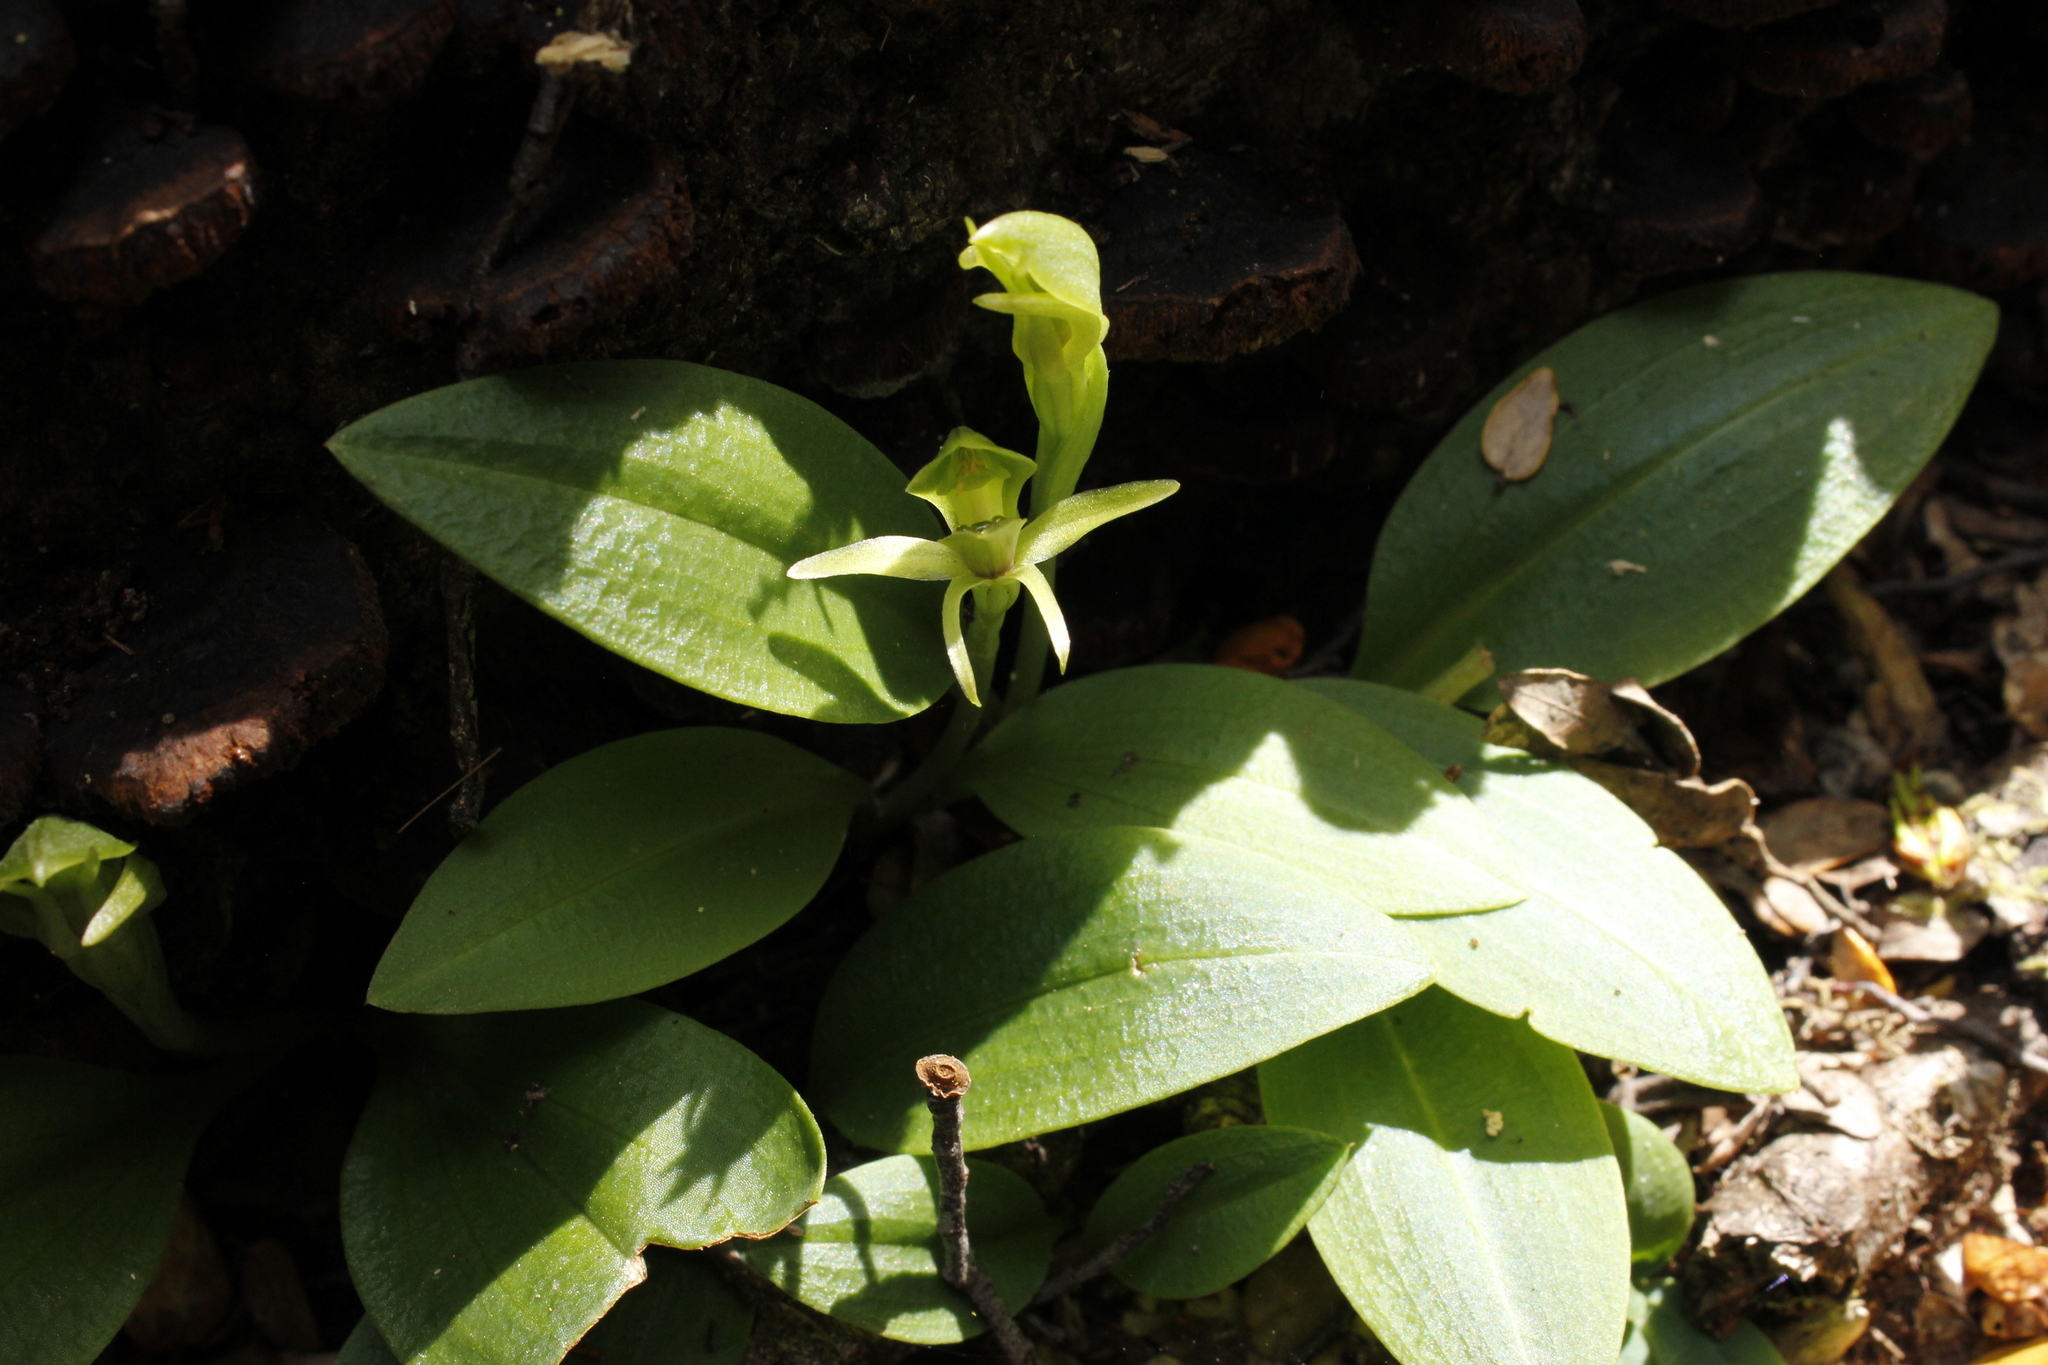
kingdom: Plantae
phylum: Tracheophyta
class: Liliopsida
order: Asparagales
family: Orchidaceae
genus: Chiloglottis
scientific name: Chiloglottis cornuta
